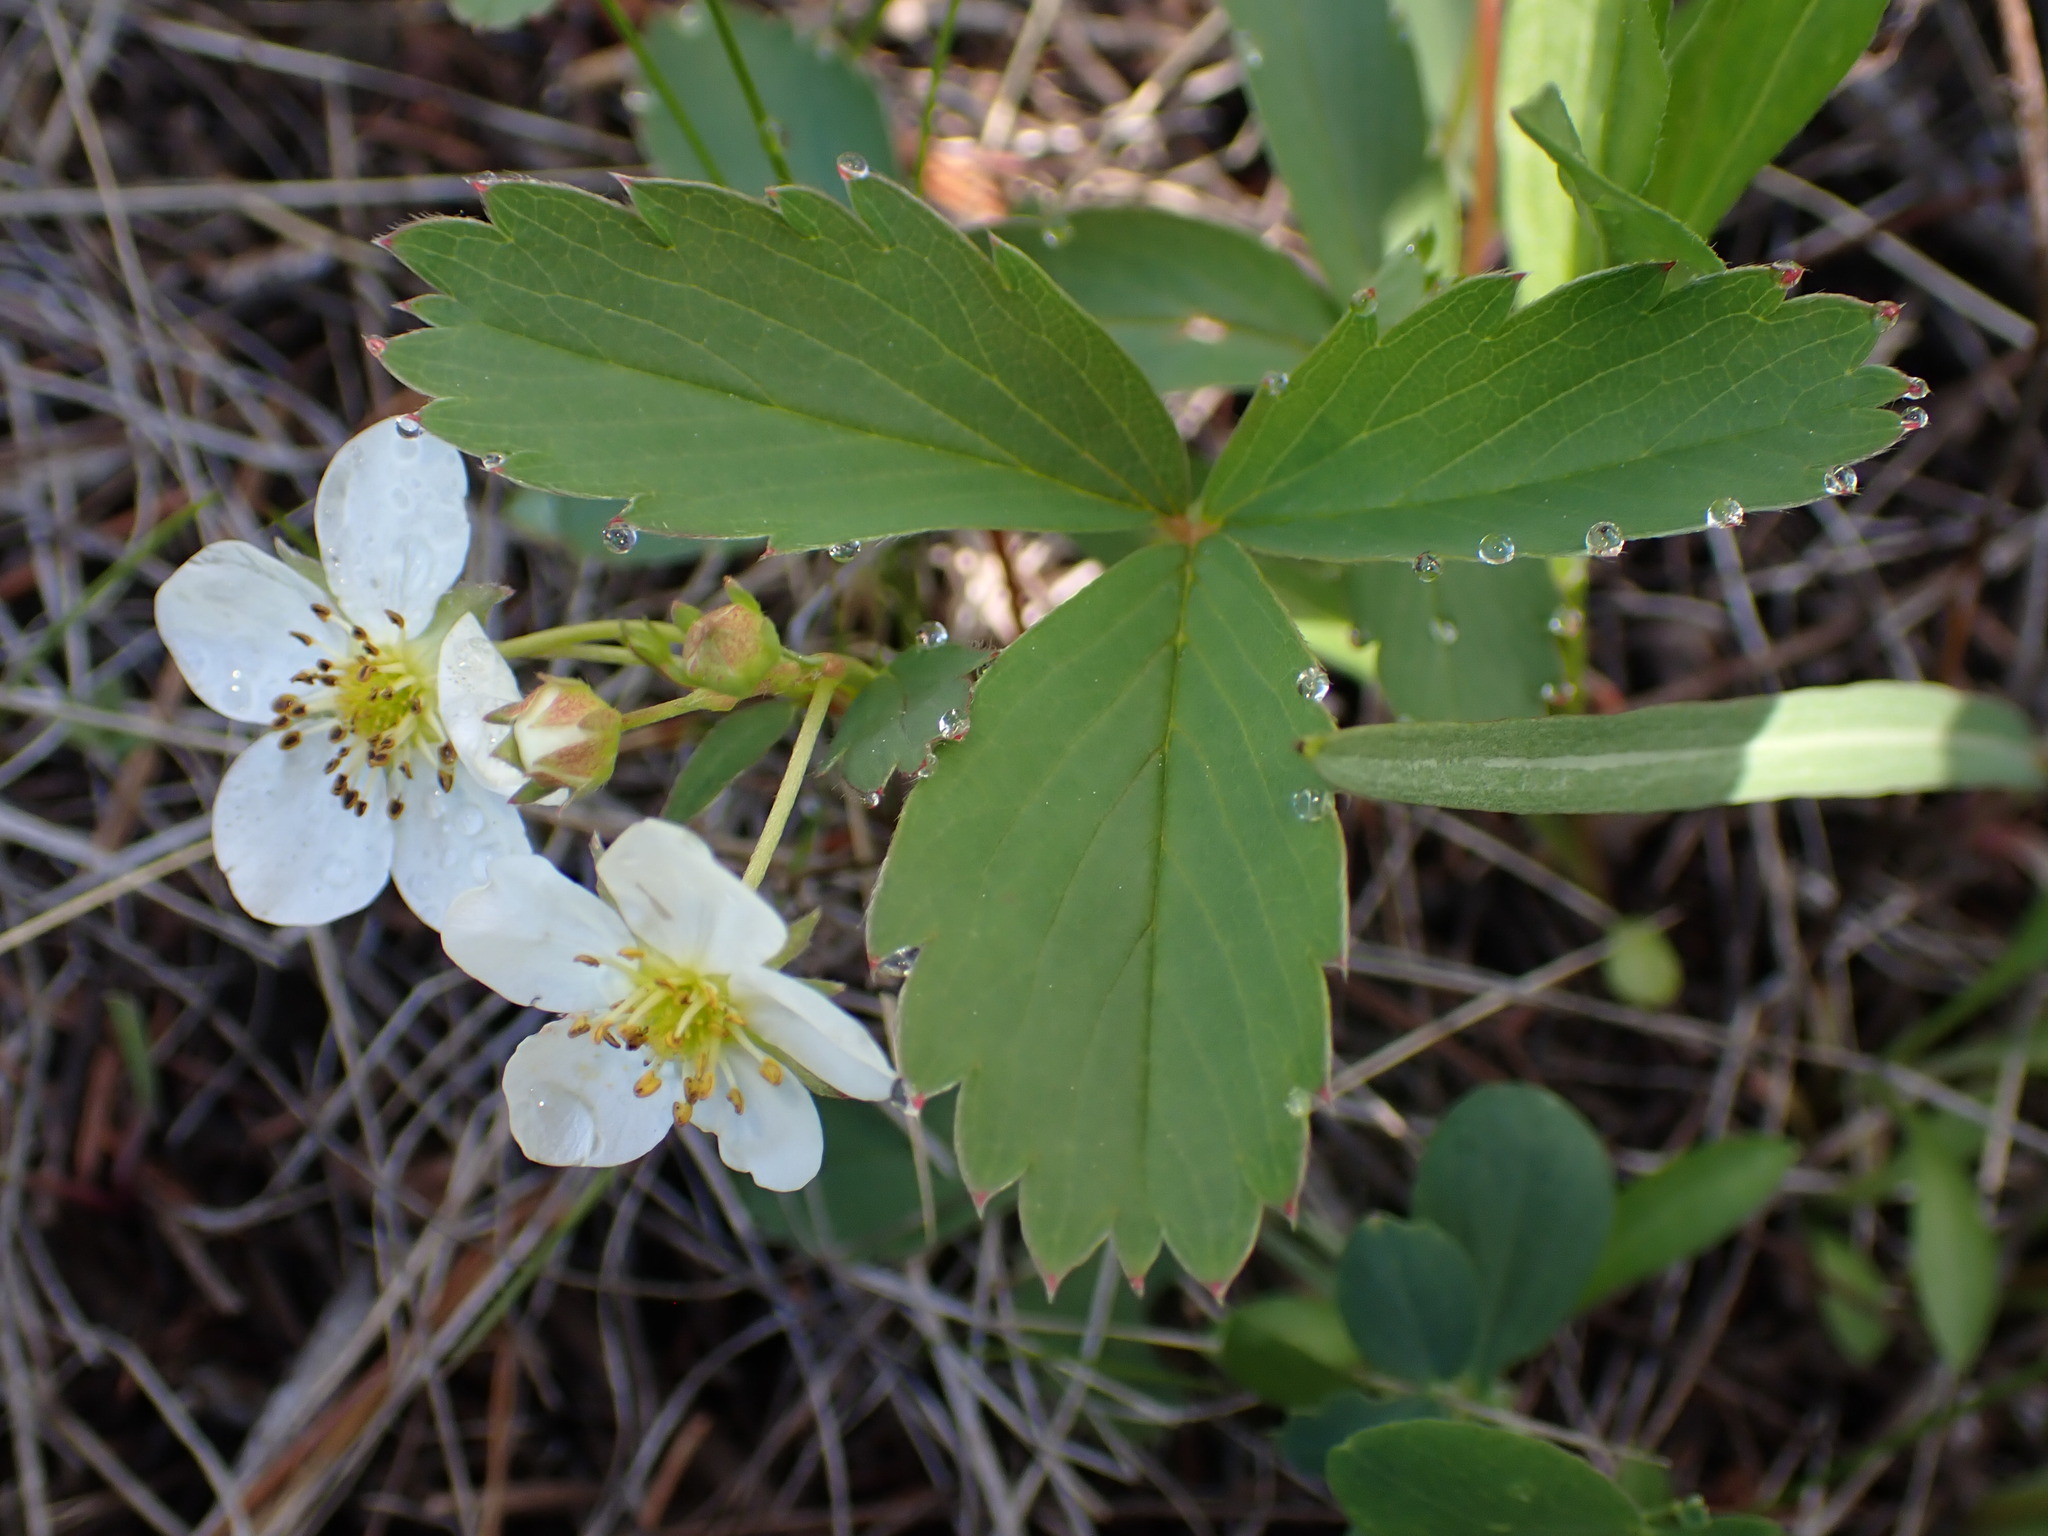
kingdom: Plantae
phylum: Tracheophyta
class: Magnoliopsida
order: Rosales
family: Rosaceae
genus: Fragaria
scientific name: Fragaria virginiana
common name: Thickleaved wild strawberry
